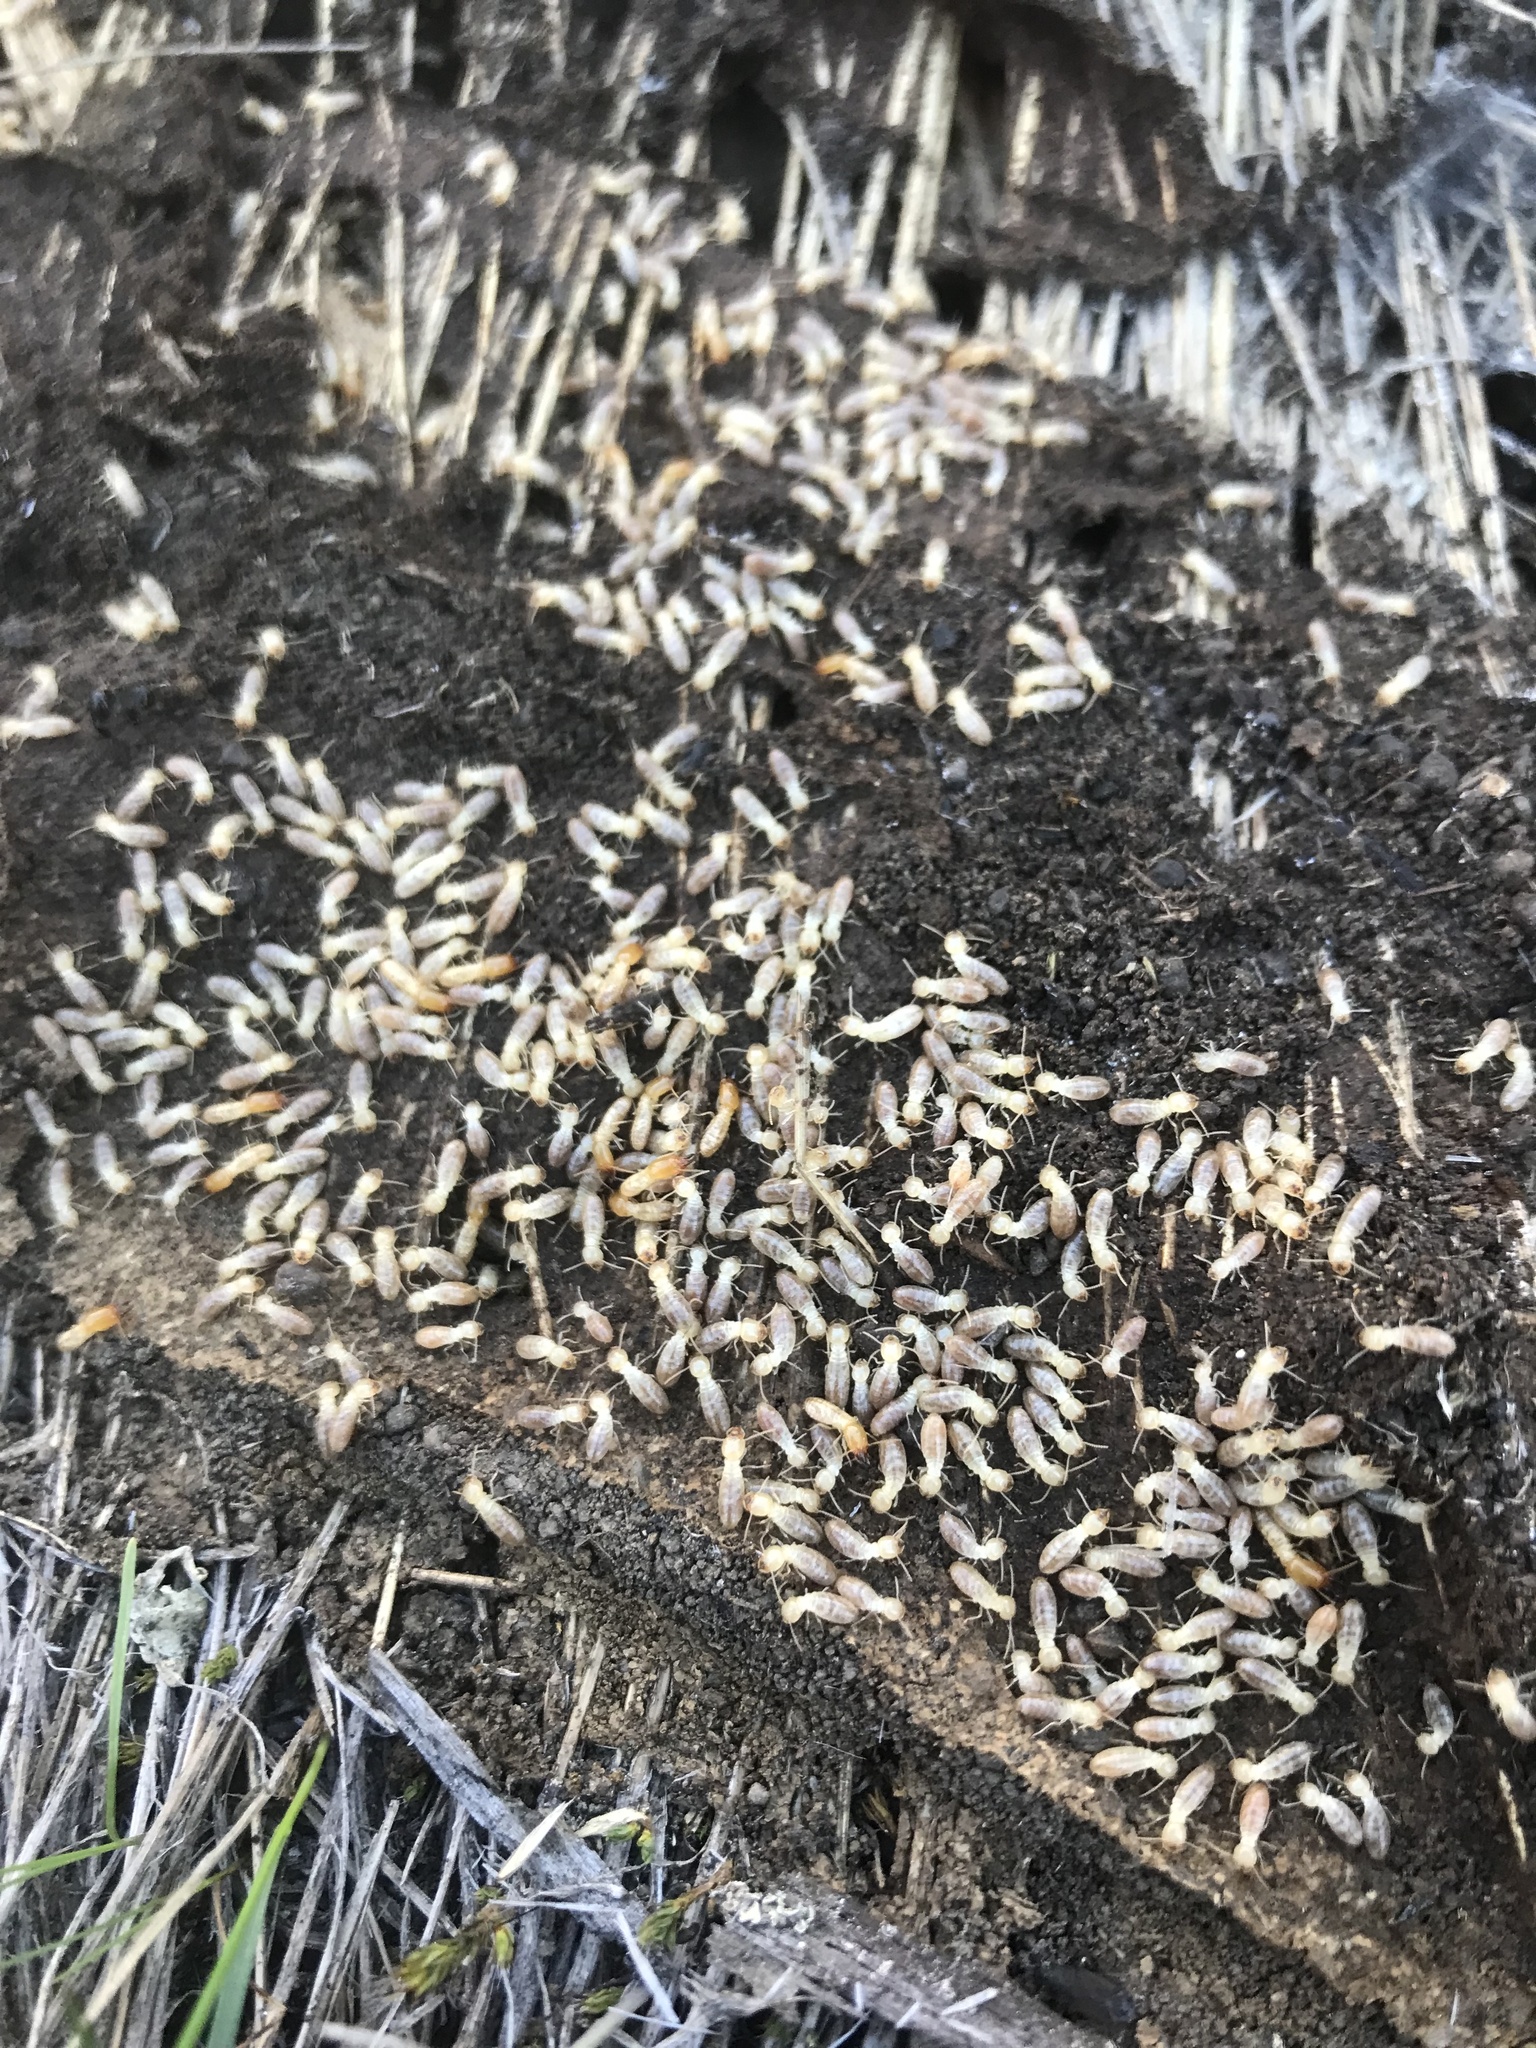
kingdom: Animalia
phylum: Arthropoda
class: Insecta
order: Blattodea
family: Rhinotermitidae
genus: Reticulitermes
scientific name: Reticulitermes hesperus
